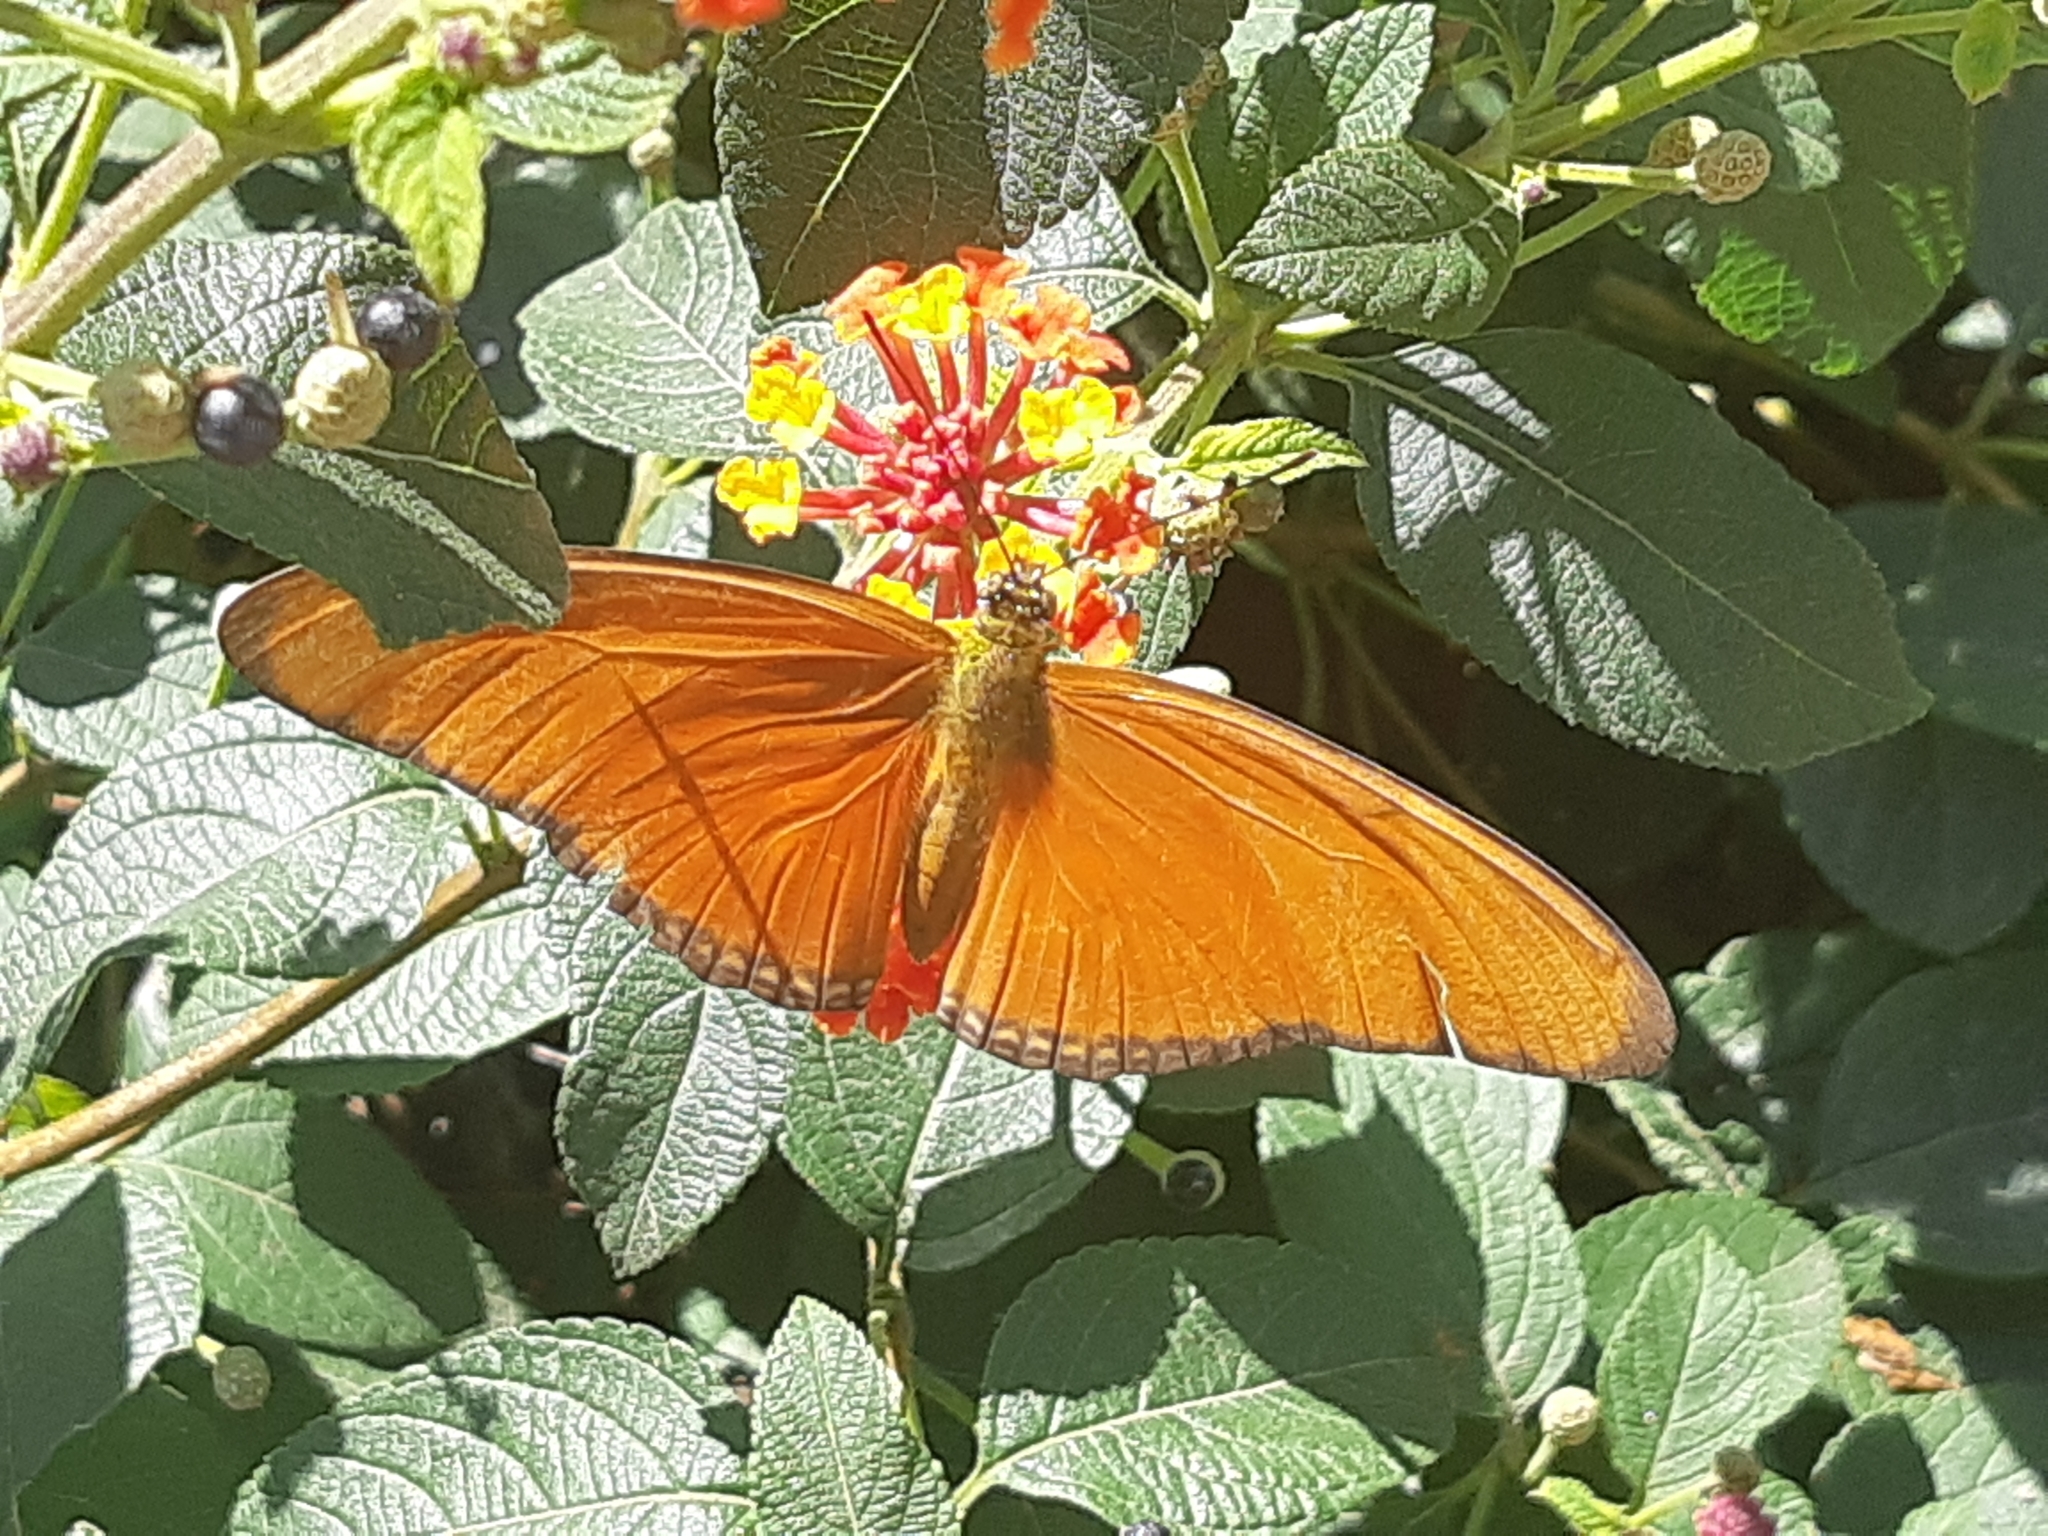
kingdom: Animalia
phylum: Arthropoda
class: Insecta
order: Lepidoptera
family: Nymphalidae
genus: Dryas
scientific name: Dryas iulia
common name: Flambeau
